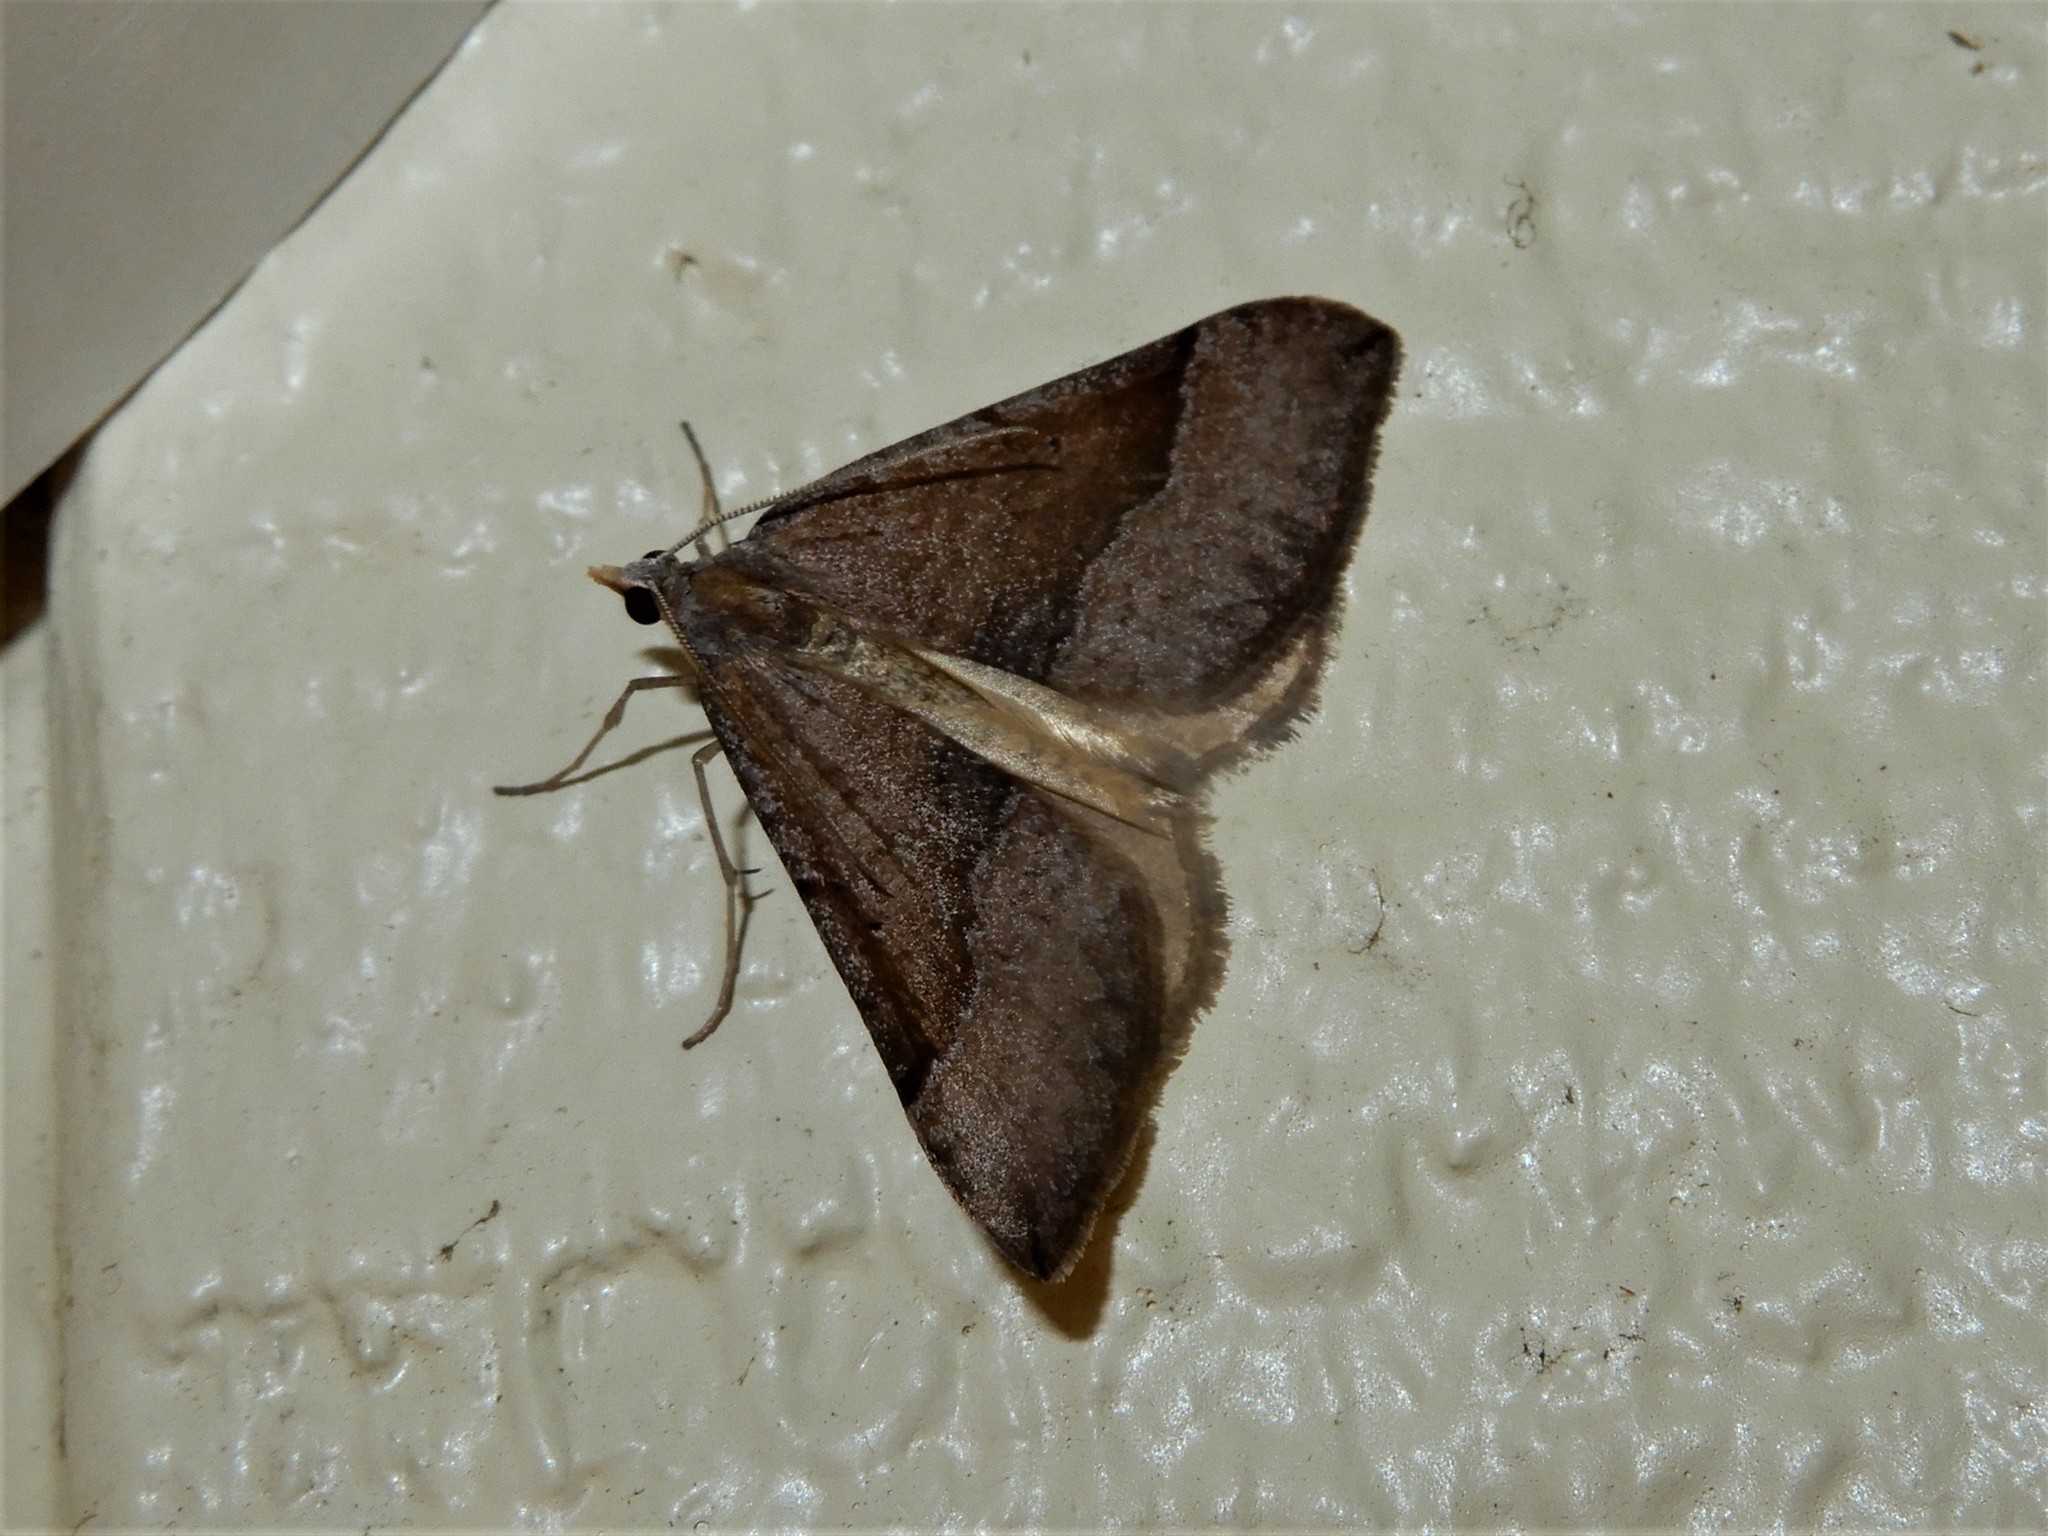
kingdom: Animalia
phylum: Arthropoda
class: Insecta
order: Lepidoptera
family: Geometridae
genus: Anachloris
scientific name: Anachloris subochraria
